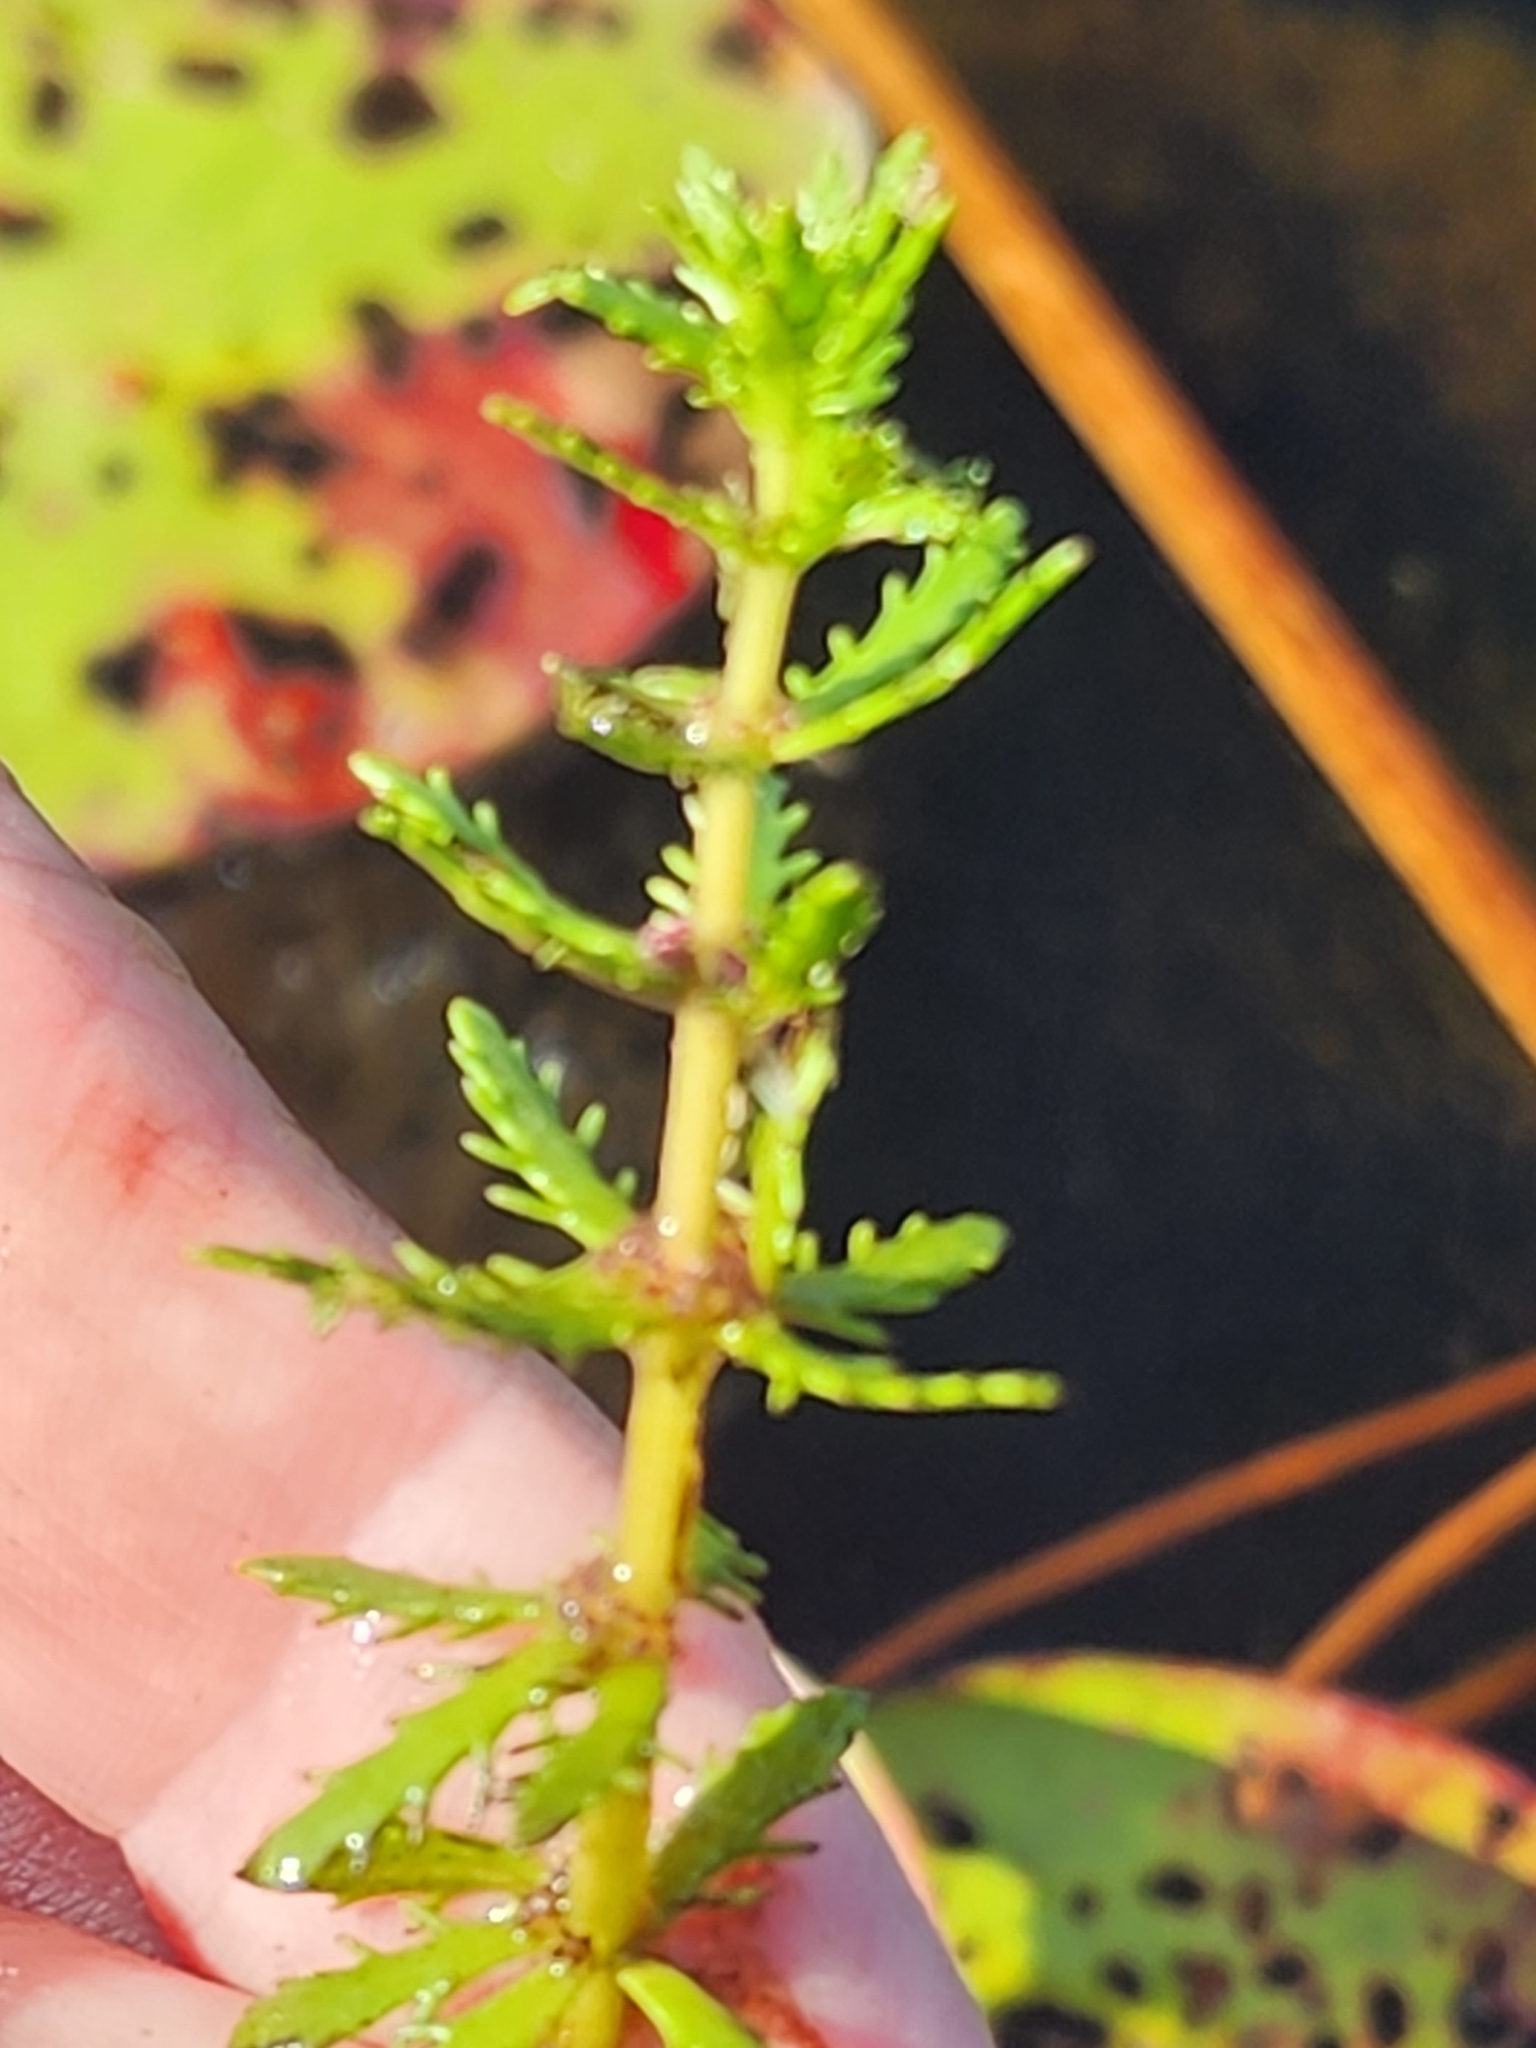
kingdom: Plantae
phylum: Tracheophyta
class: Magnoliopsida
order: Saxifragales
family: Haloragaceae
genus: Myriophyllum
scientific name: Myriophyllum heterophyllum
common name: Variable watermilfoil
